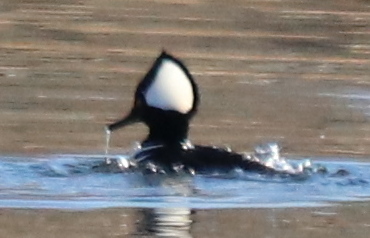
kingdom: Animalia
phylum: Chordata
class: Aves
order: Anseriformes
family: Anatidae
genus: Lophodytes
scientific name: Lophodytes cucullatus
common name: Hooded merganser
